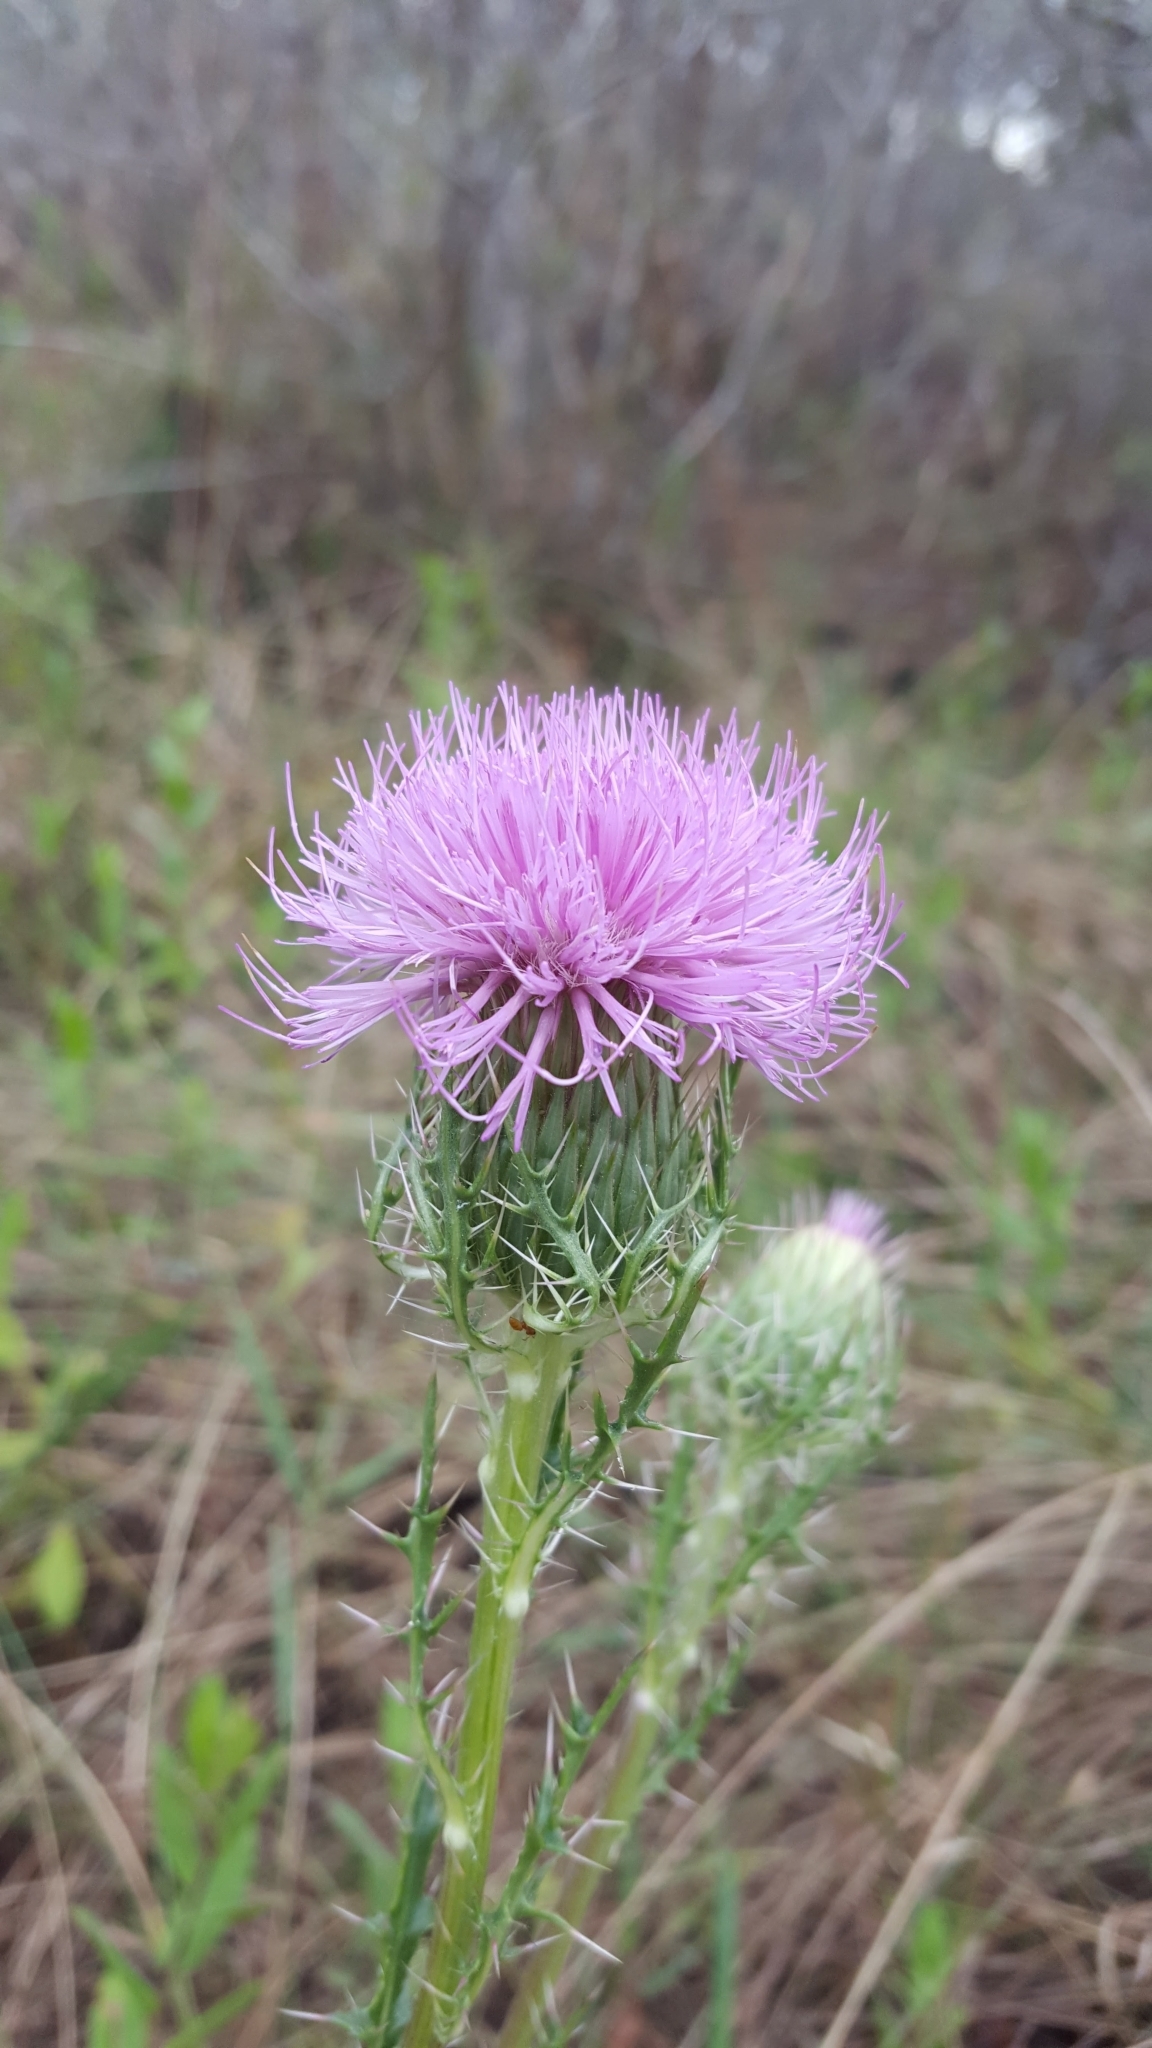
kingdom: Plantae
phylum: Tracheophyta
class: Magnoliopsida
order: Asterales
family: Asteraceae
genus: Cirsium
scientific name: Cirsium horridulum
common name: Bristly thistle
